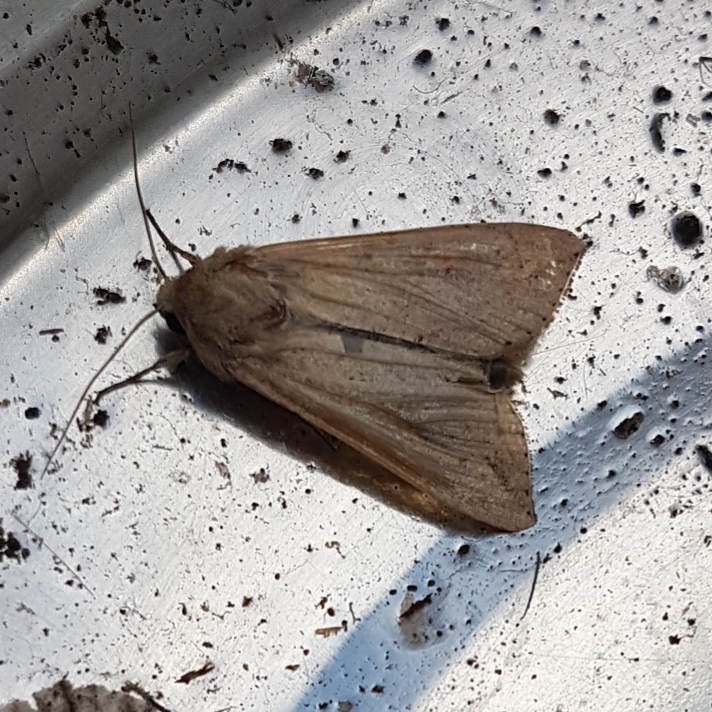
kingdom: Animalia
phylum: Arthropoda
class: Insecta
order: Lepidoptera
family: Noctuidae
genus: Mythimna
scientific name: Mythimna unipuncta
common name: White-speck
